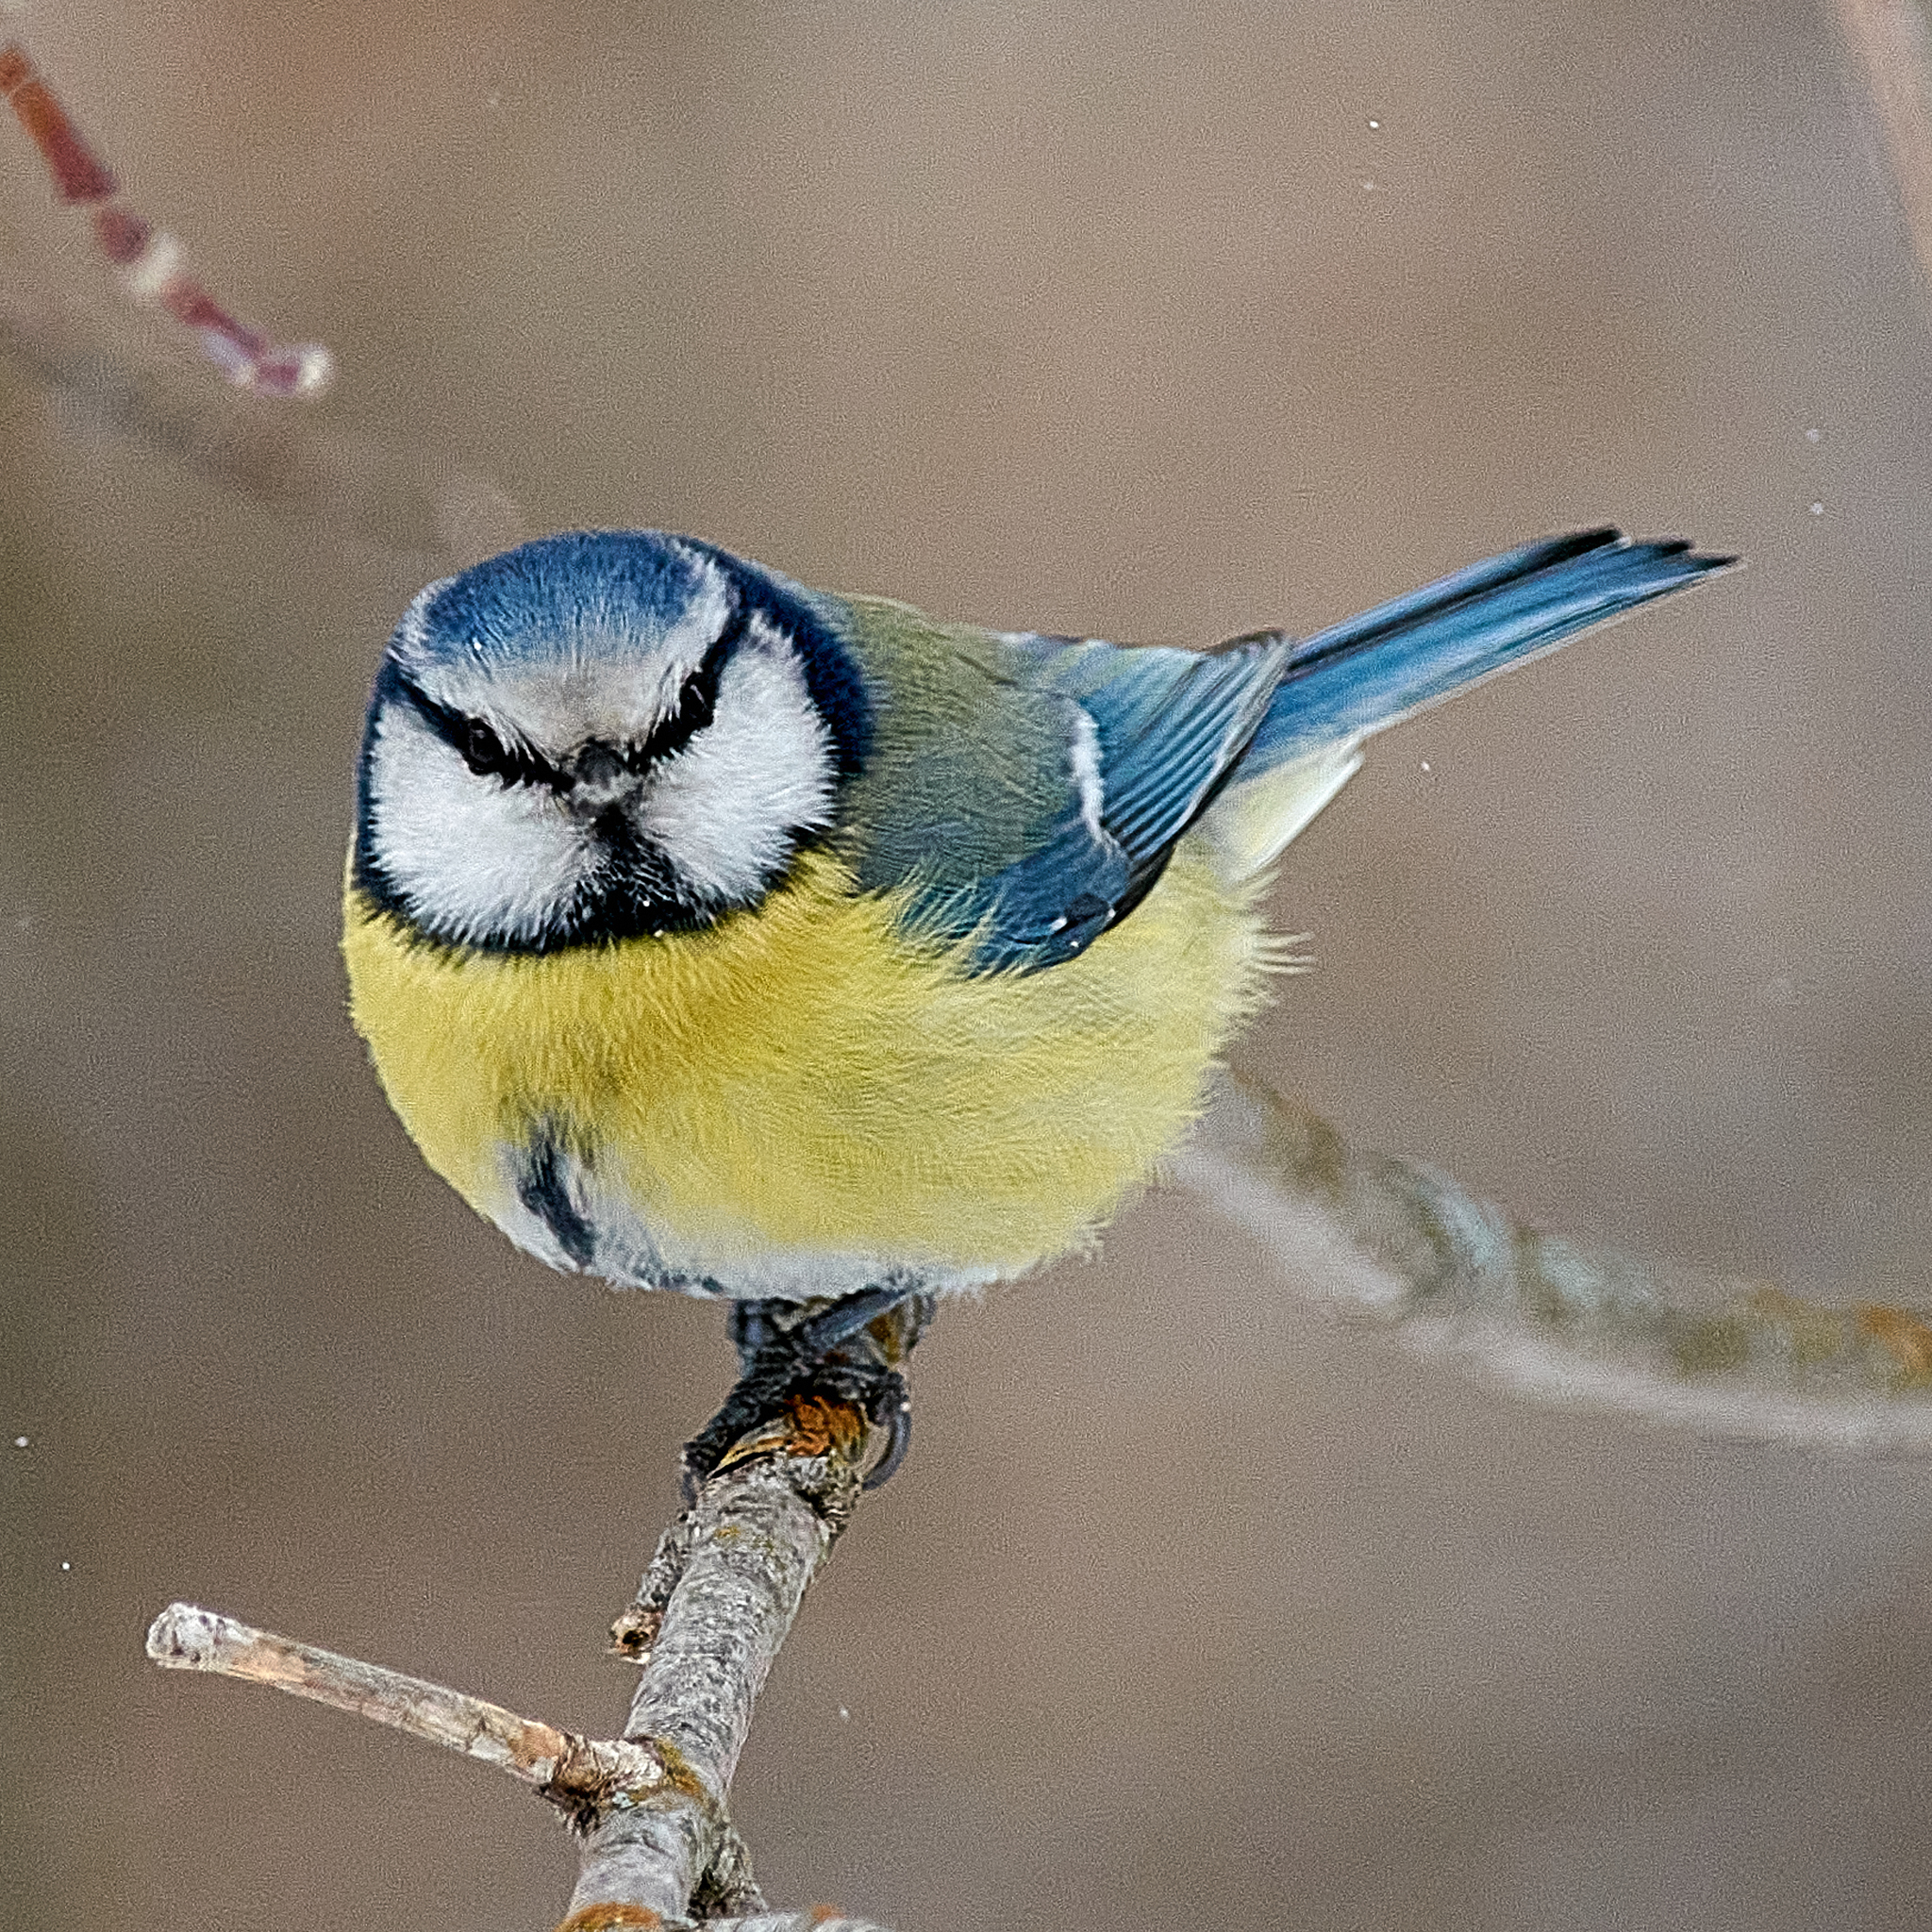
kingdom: Animalia
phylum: Chordata
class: Aves
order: Passeriformes
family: Paridae
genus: Cyanistes
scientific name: Cyanistes caeruleus
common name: Eurasian blue tit
